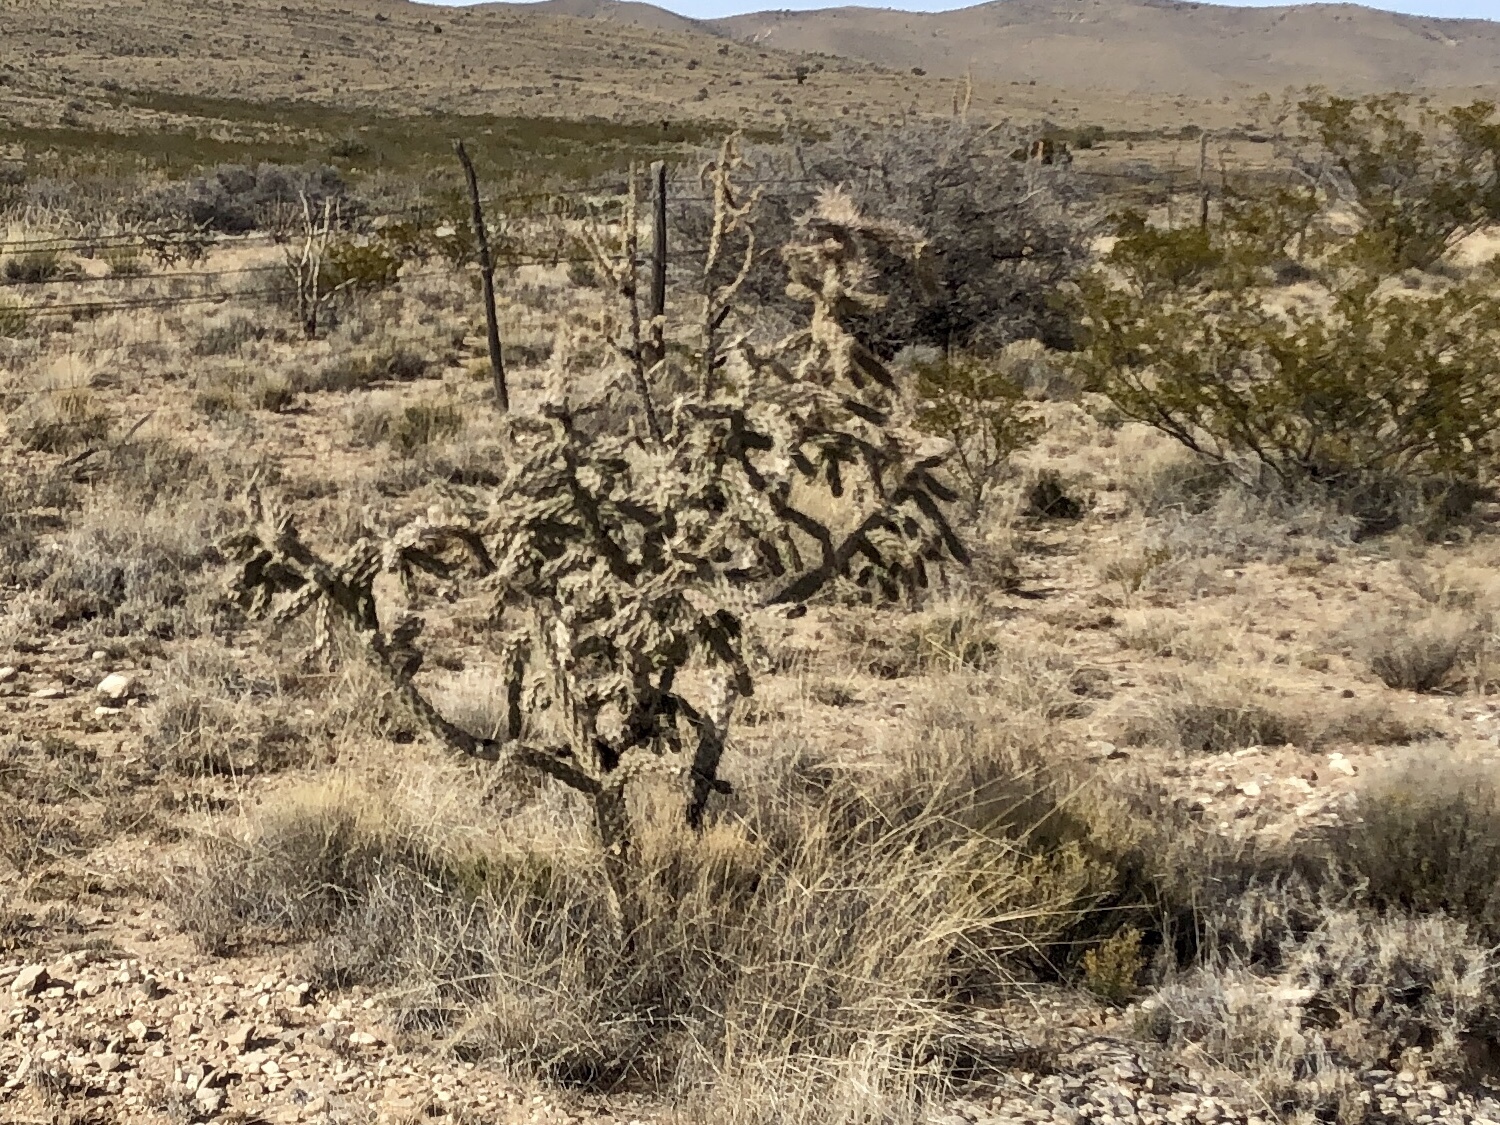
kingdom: Plantae
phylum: Tracheophyta
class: Magnoliopsida
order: Caryophyllales
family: Cactaceae
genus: Cylindropuntia
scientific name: Cylindropuntia imbricata
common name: Candelabrum cactus
